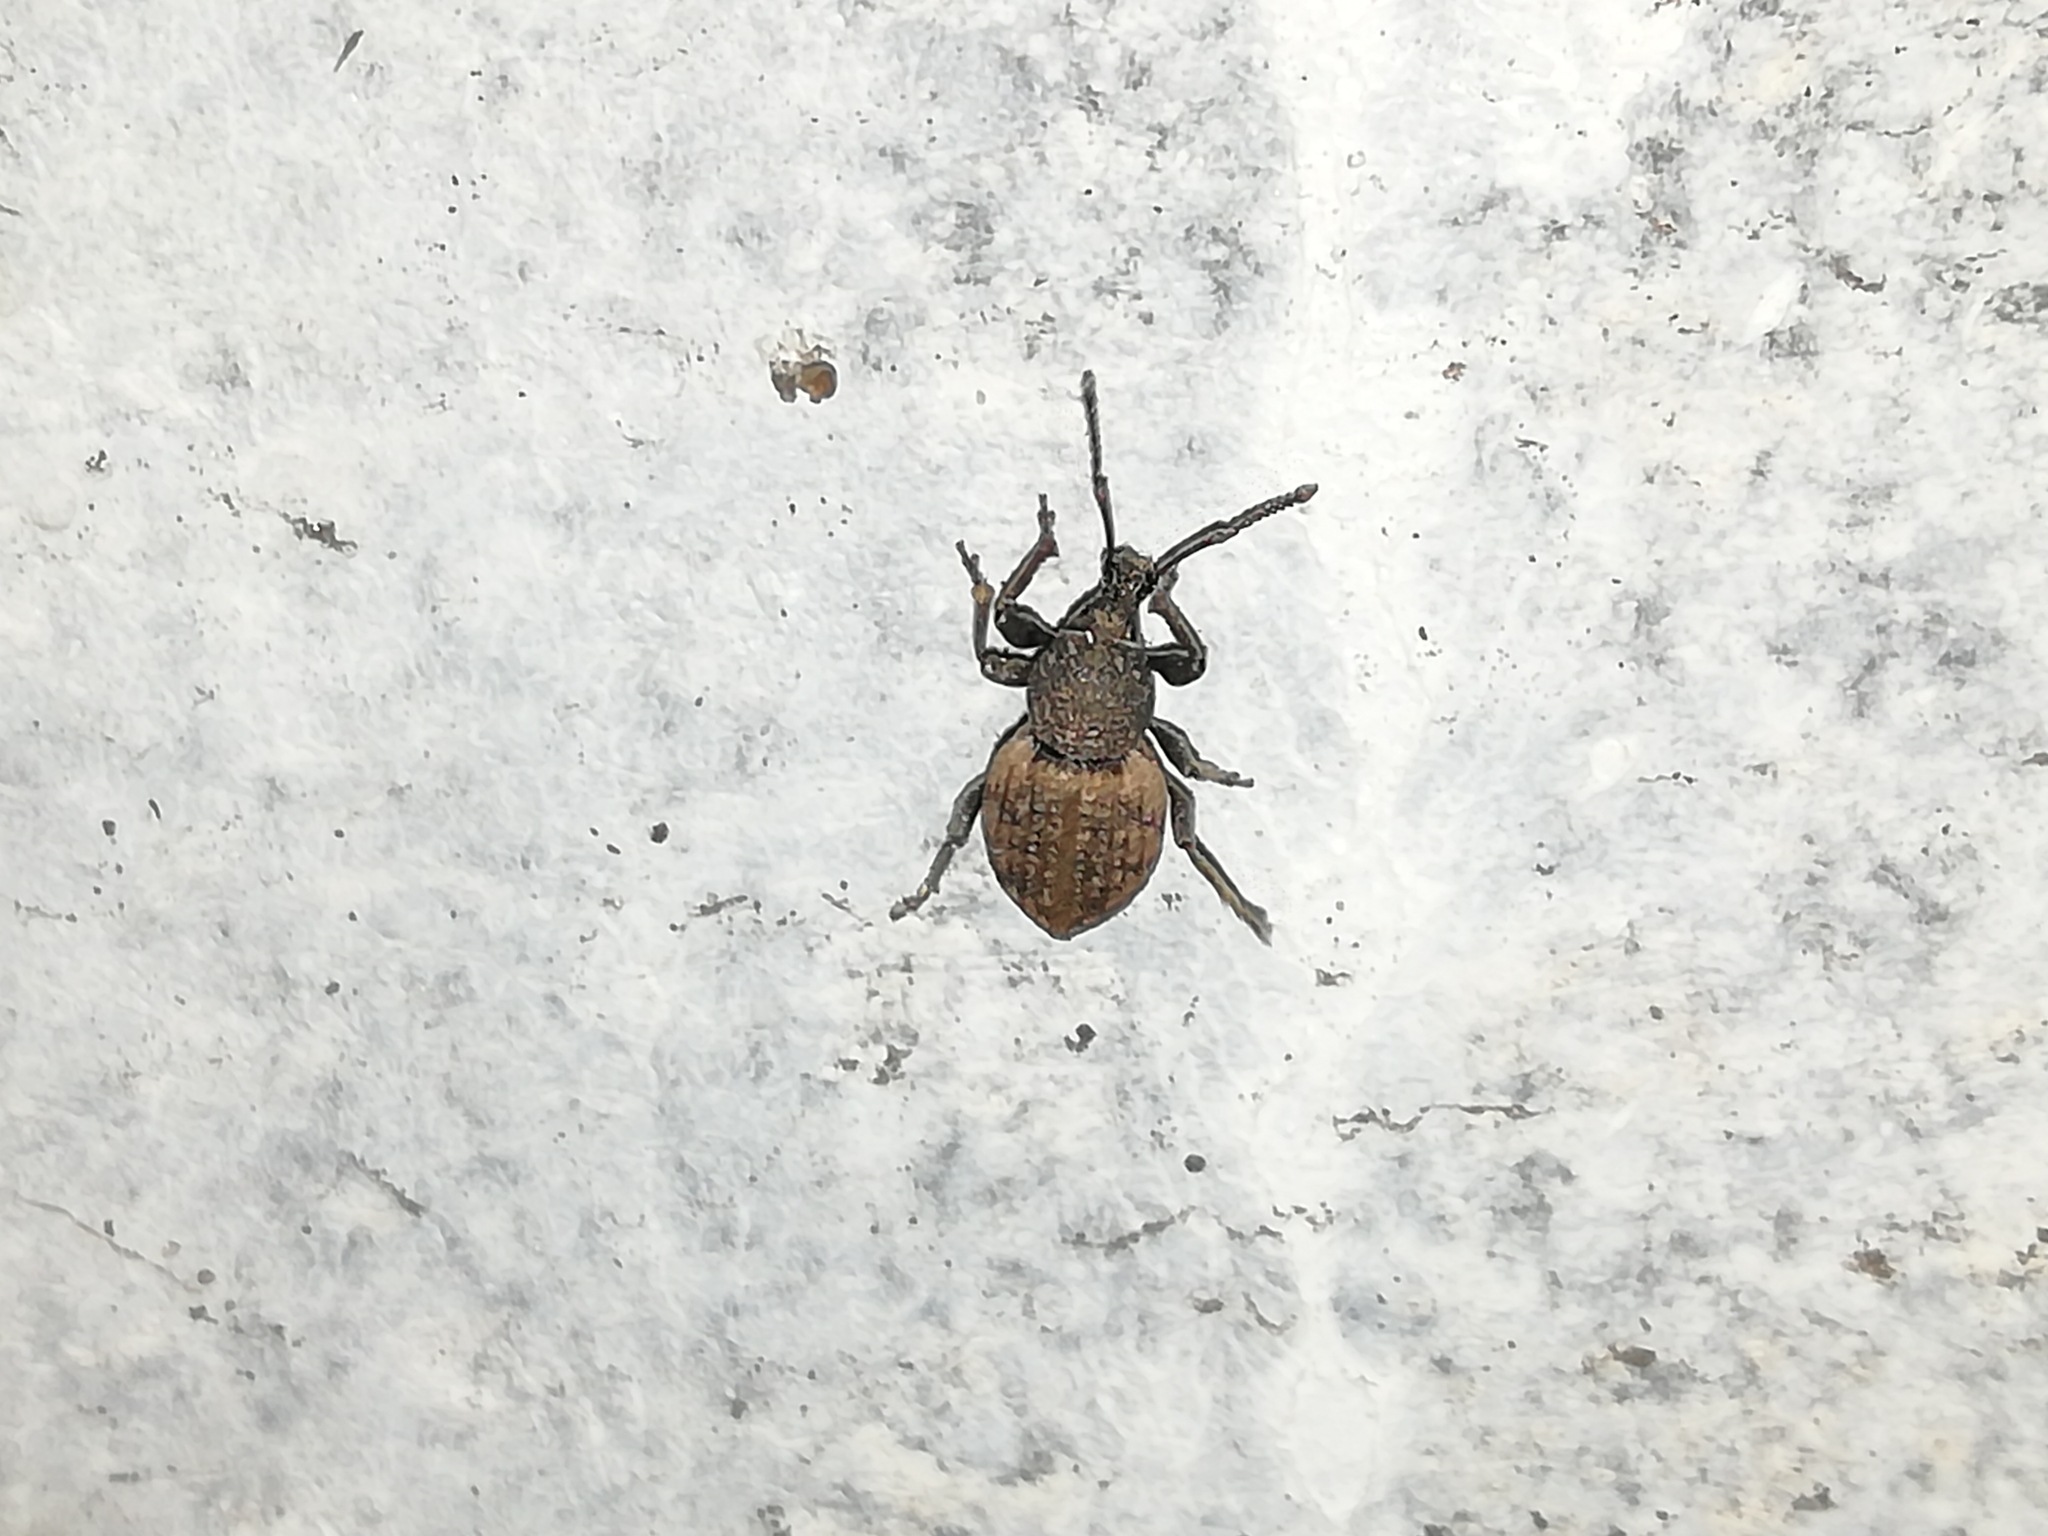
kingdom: Animalia
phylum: Arthropoda
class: Insecta
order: Coleoptera
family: Curculionidae
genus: Otiorhynchus
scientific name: Otiorhynchus raucus
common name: Weevil
